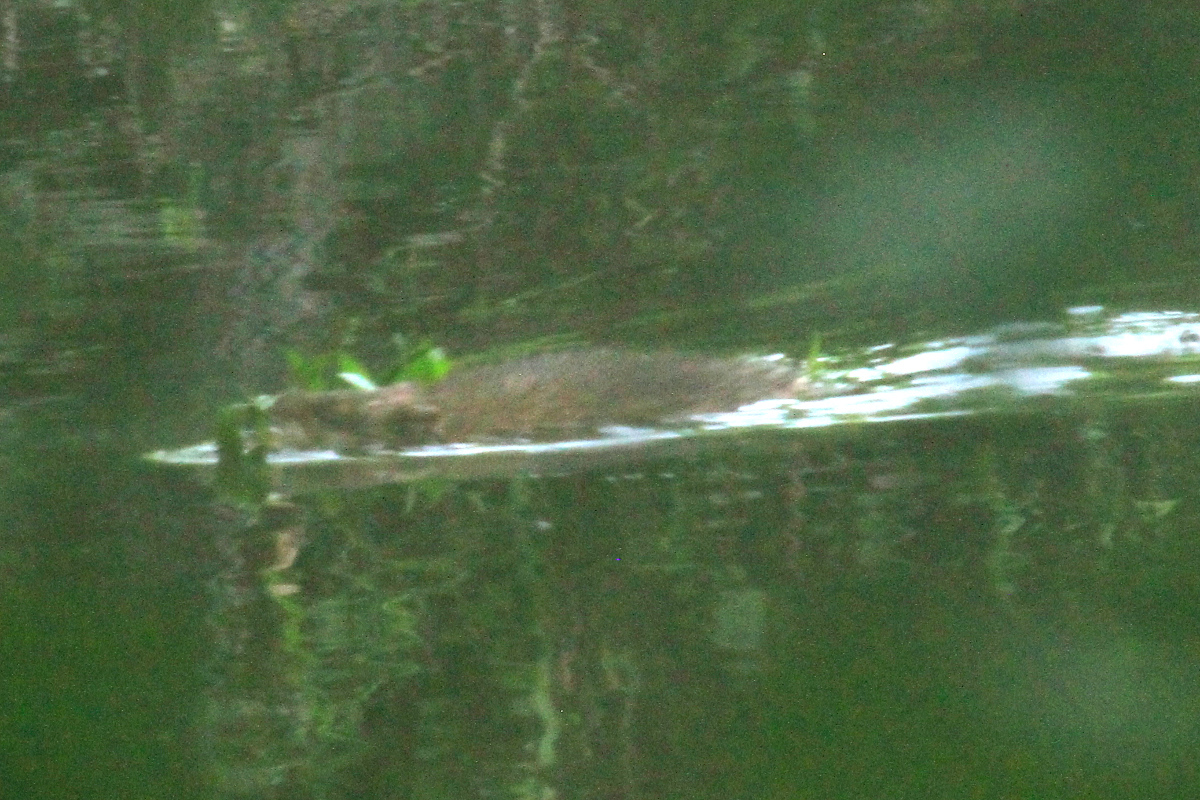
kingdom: Animalia
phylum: Chordata
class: Mammalia
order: Rodentia
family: Cricetidae
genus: Ondatra
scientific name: Ondatra zibethicus
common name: Muskrat
